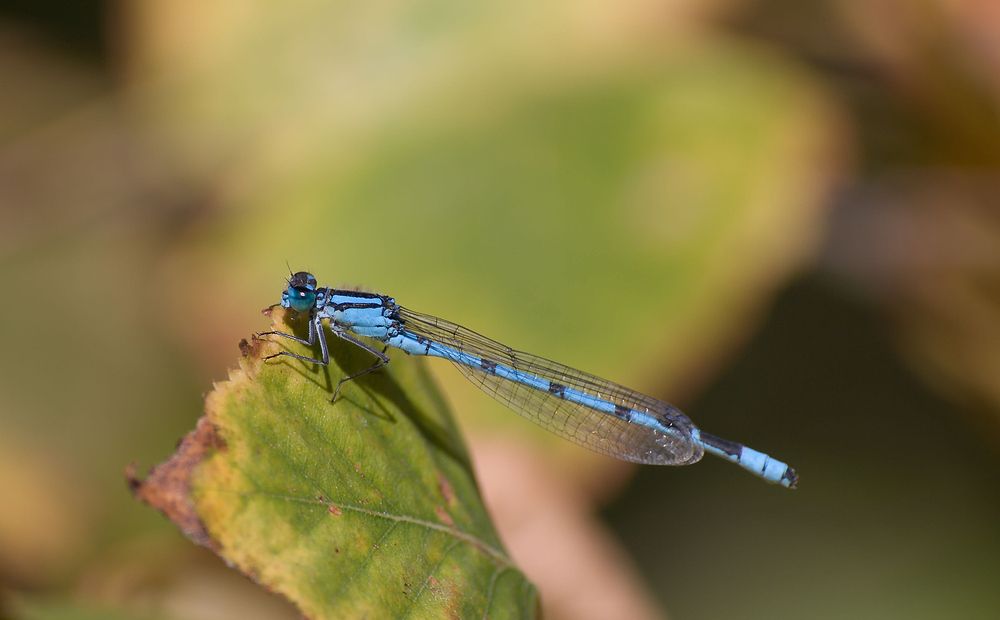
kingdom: Animalia
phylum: Arthropoda
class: Insecta
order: Odonata
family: Coenagrionidae
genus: Enallagma
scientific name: Enallagma cyathigerum
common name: Common blue damselfly
